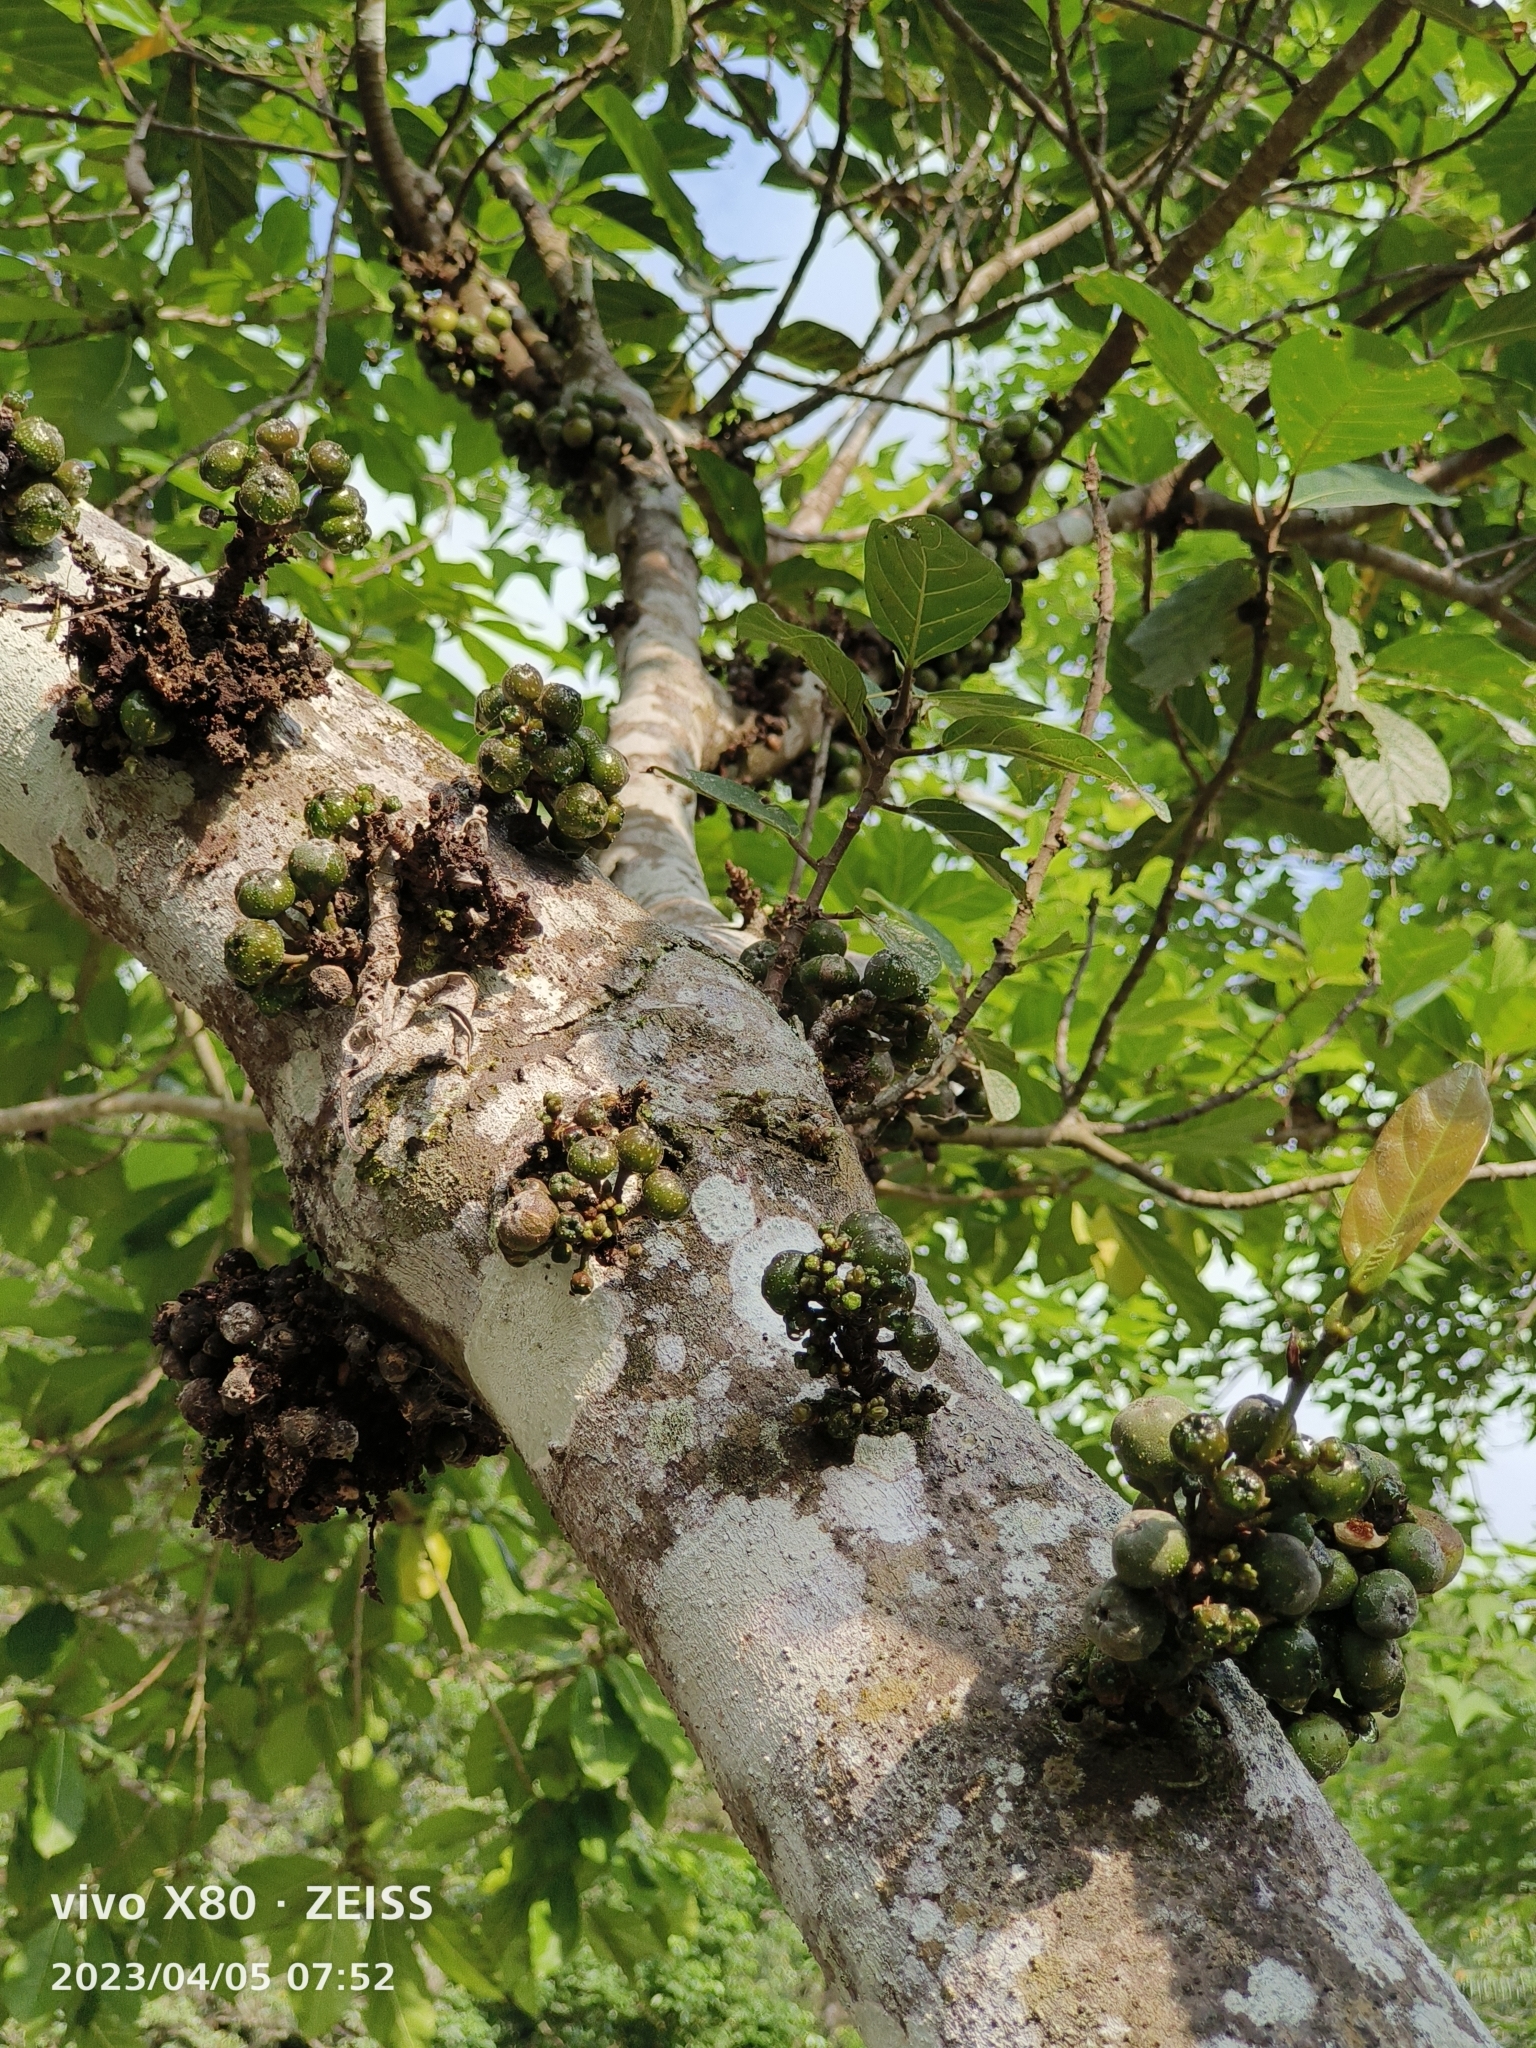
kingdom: Plantae
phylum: Tracheophyta
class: Magnoliopsida
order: Rosales
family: Moraceae
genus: Ficus
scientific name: Ficus benguetensis
